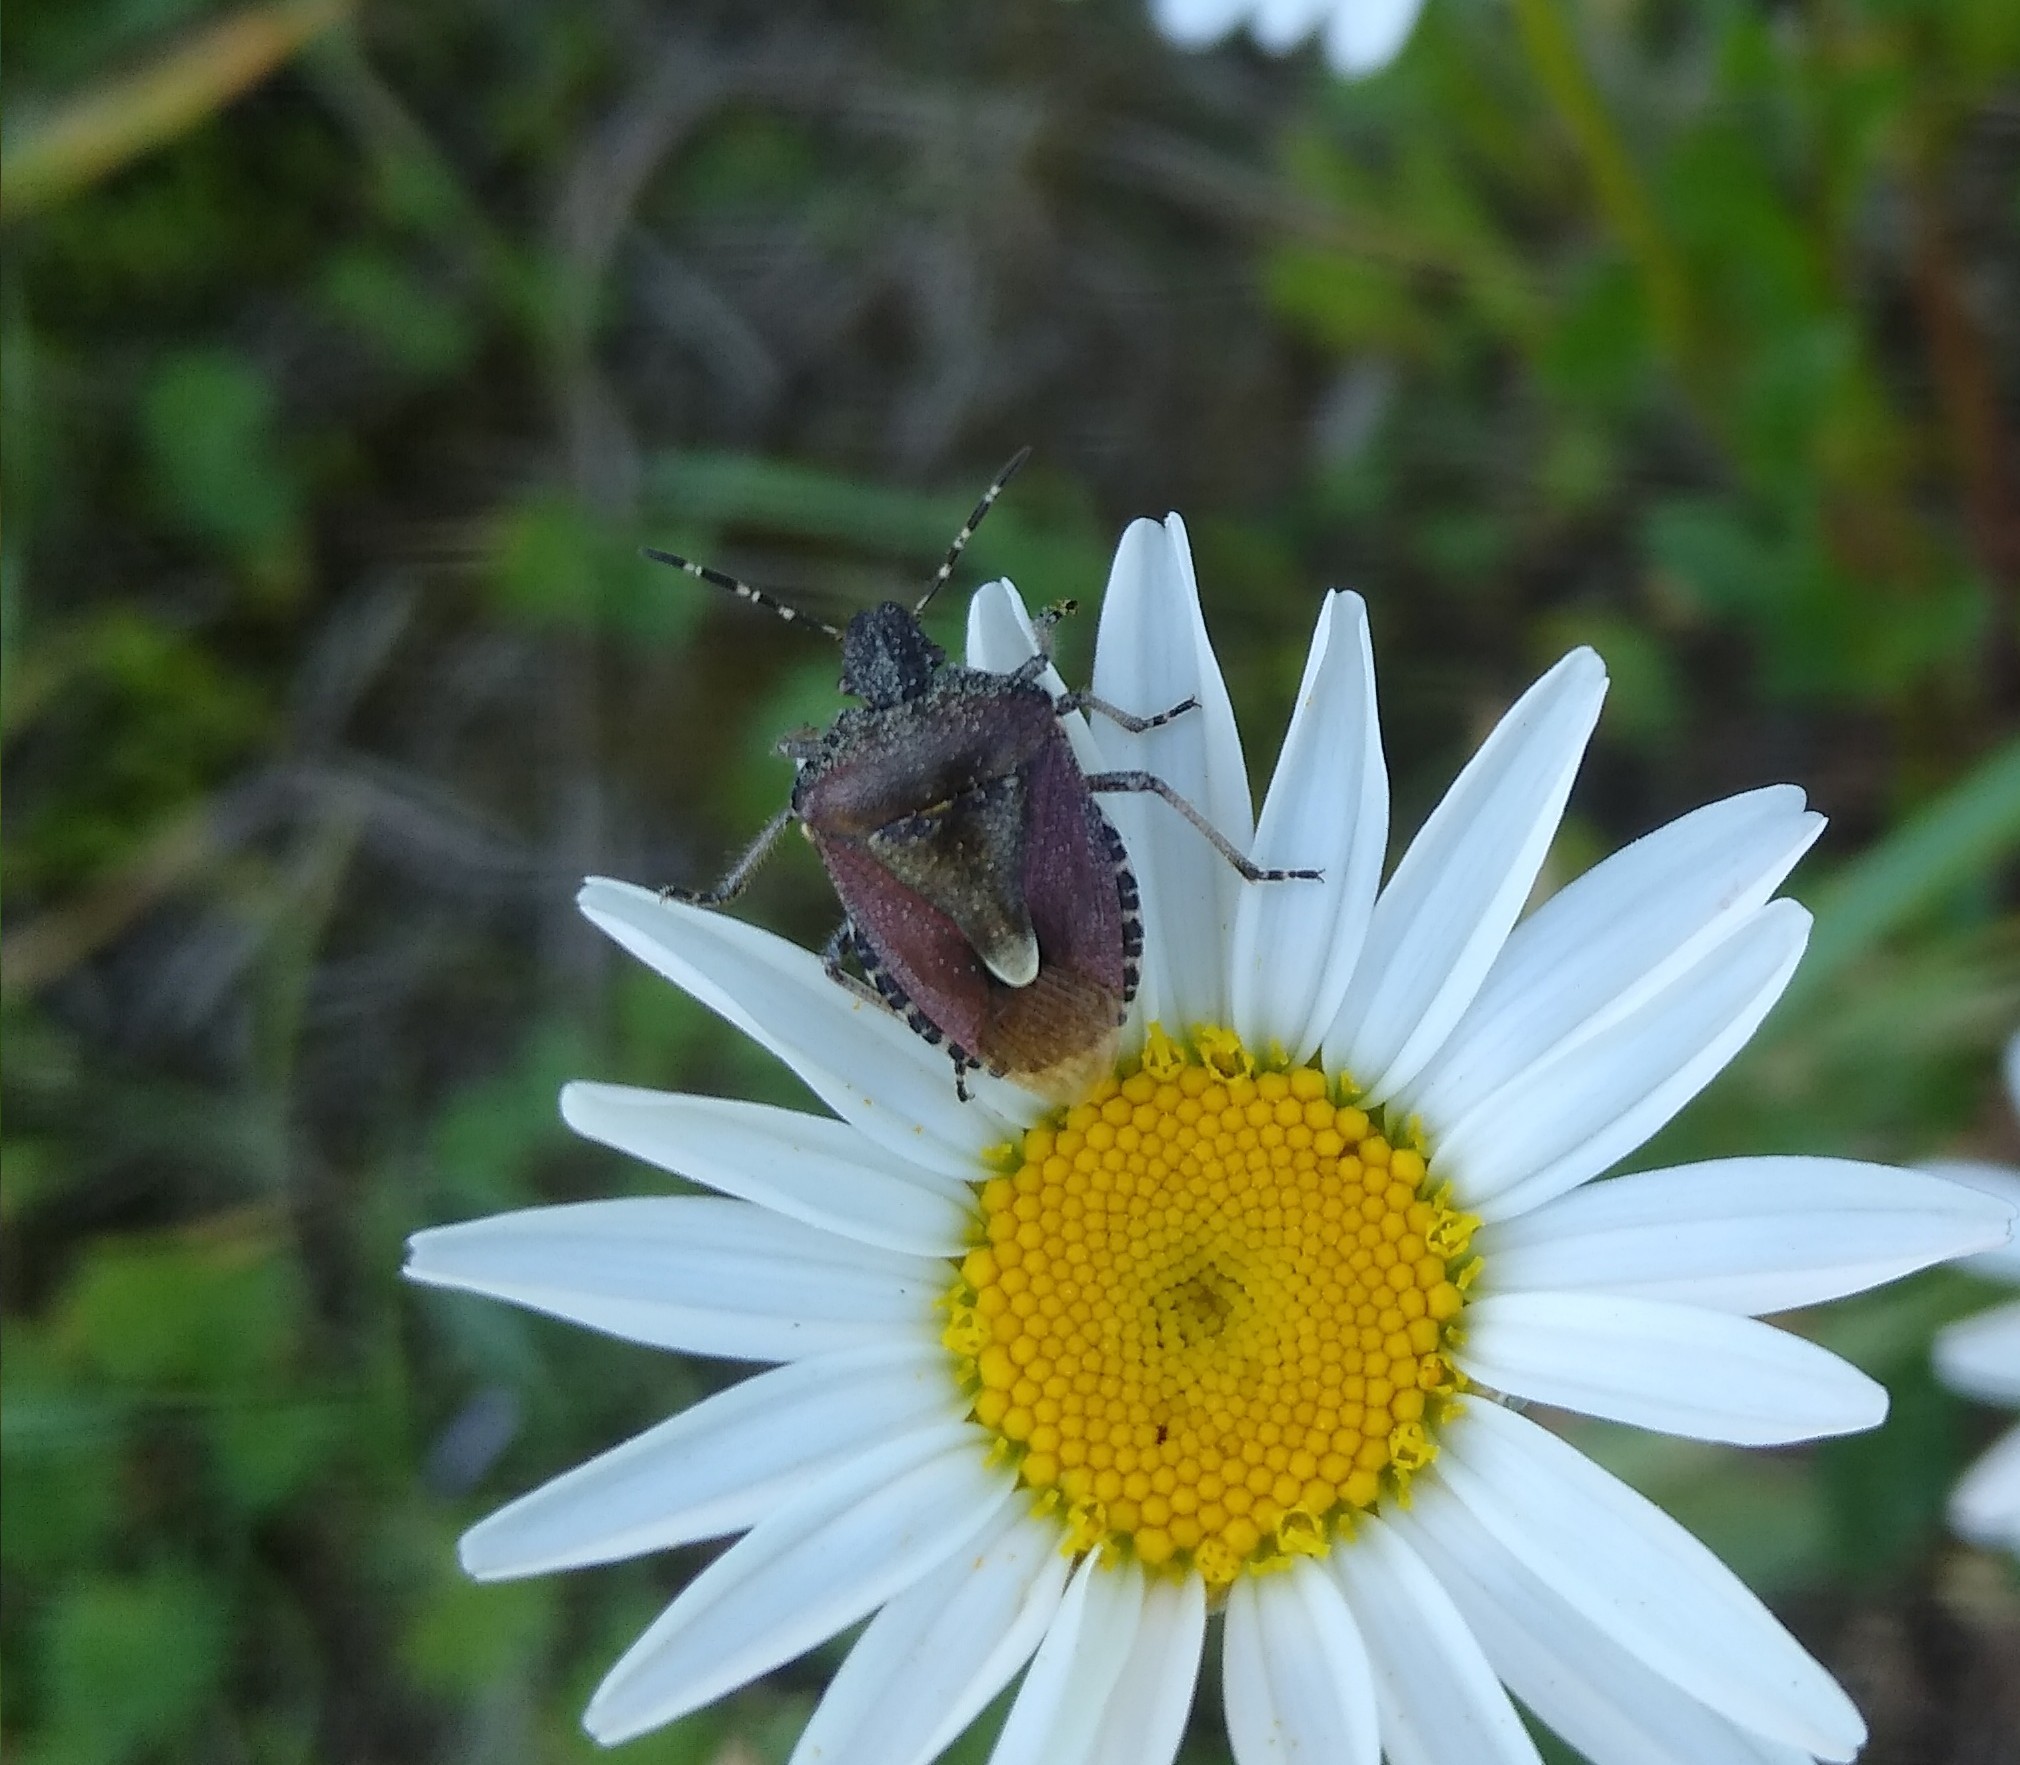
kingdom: Animalia
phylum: Arthropoda
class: Insecta
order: Hemiptera
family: Pentatomidae
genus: Dolycoris
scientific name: Dolycoris baccarum
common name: Sloe bug
